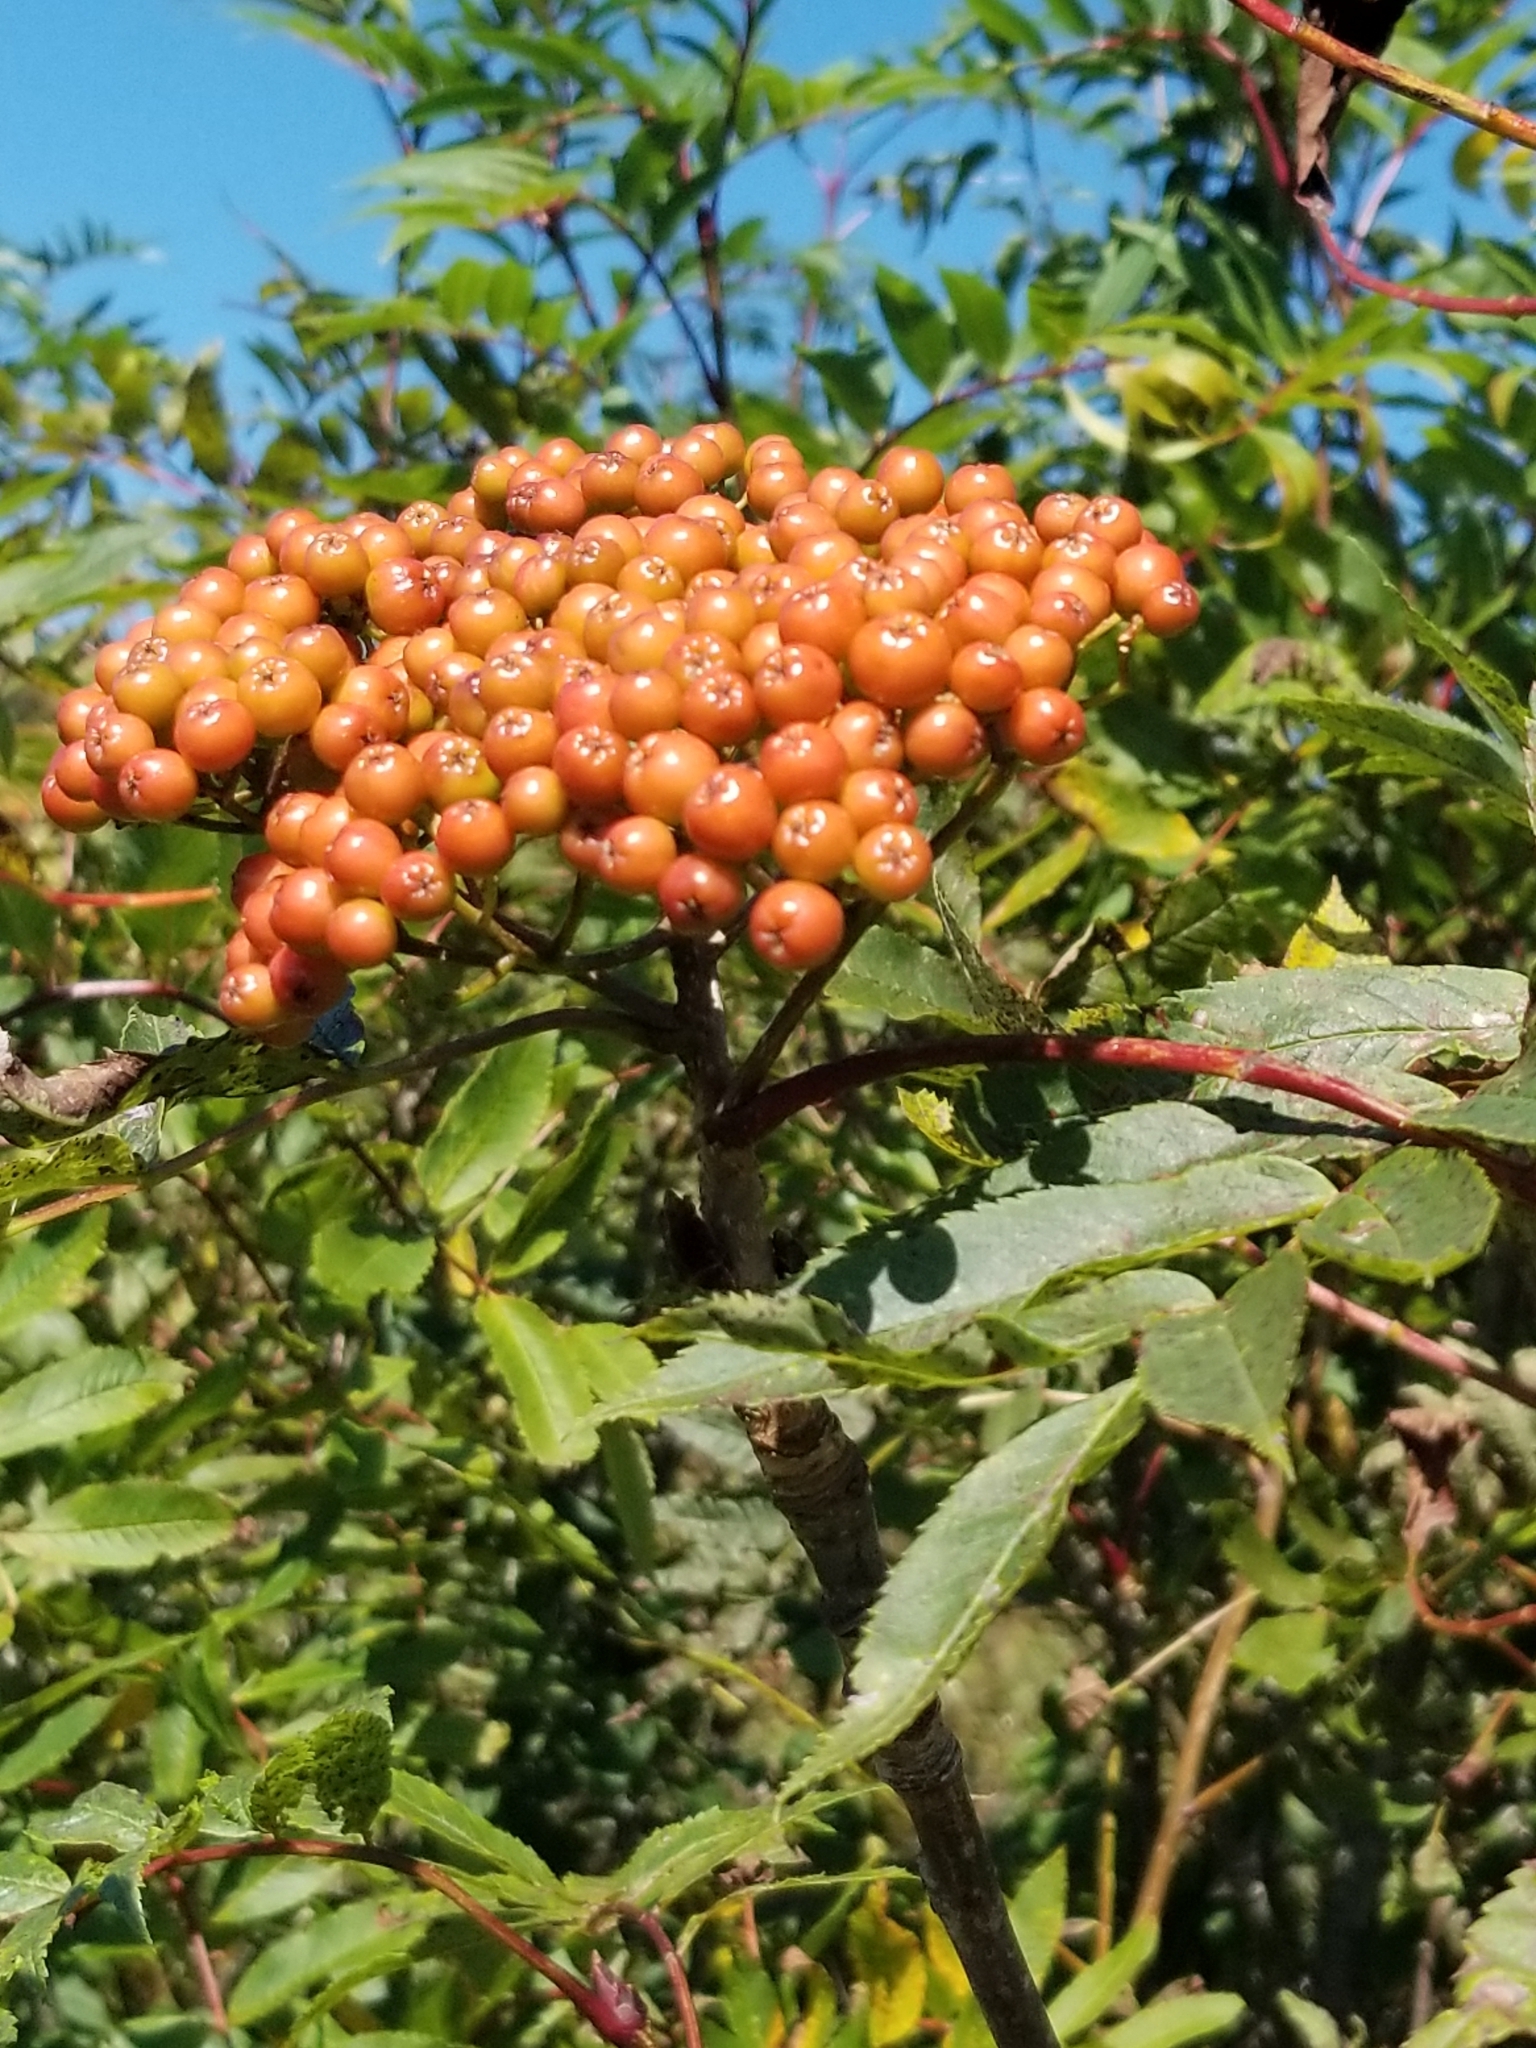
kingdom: Plantae
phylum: Tracheophyta
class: Magnoliopsida
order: Rosales
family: Rosaceae
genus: Sorbus
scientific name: Sorbus americana
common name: American mountain-ash
